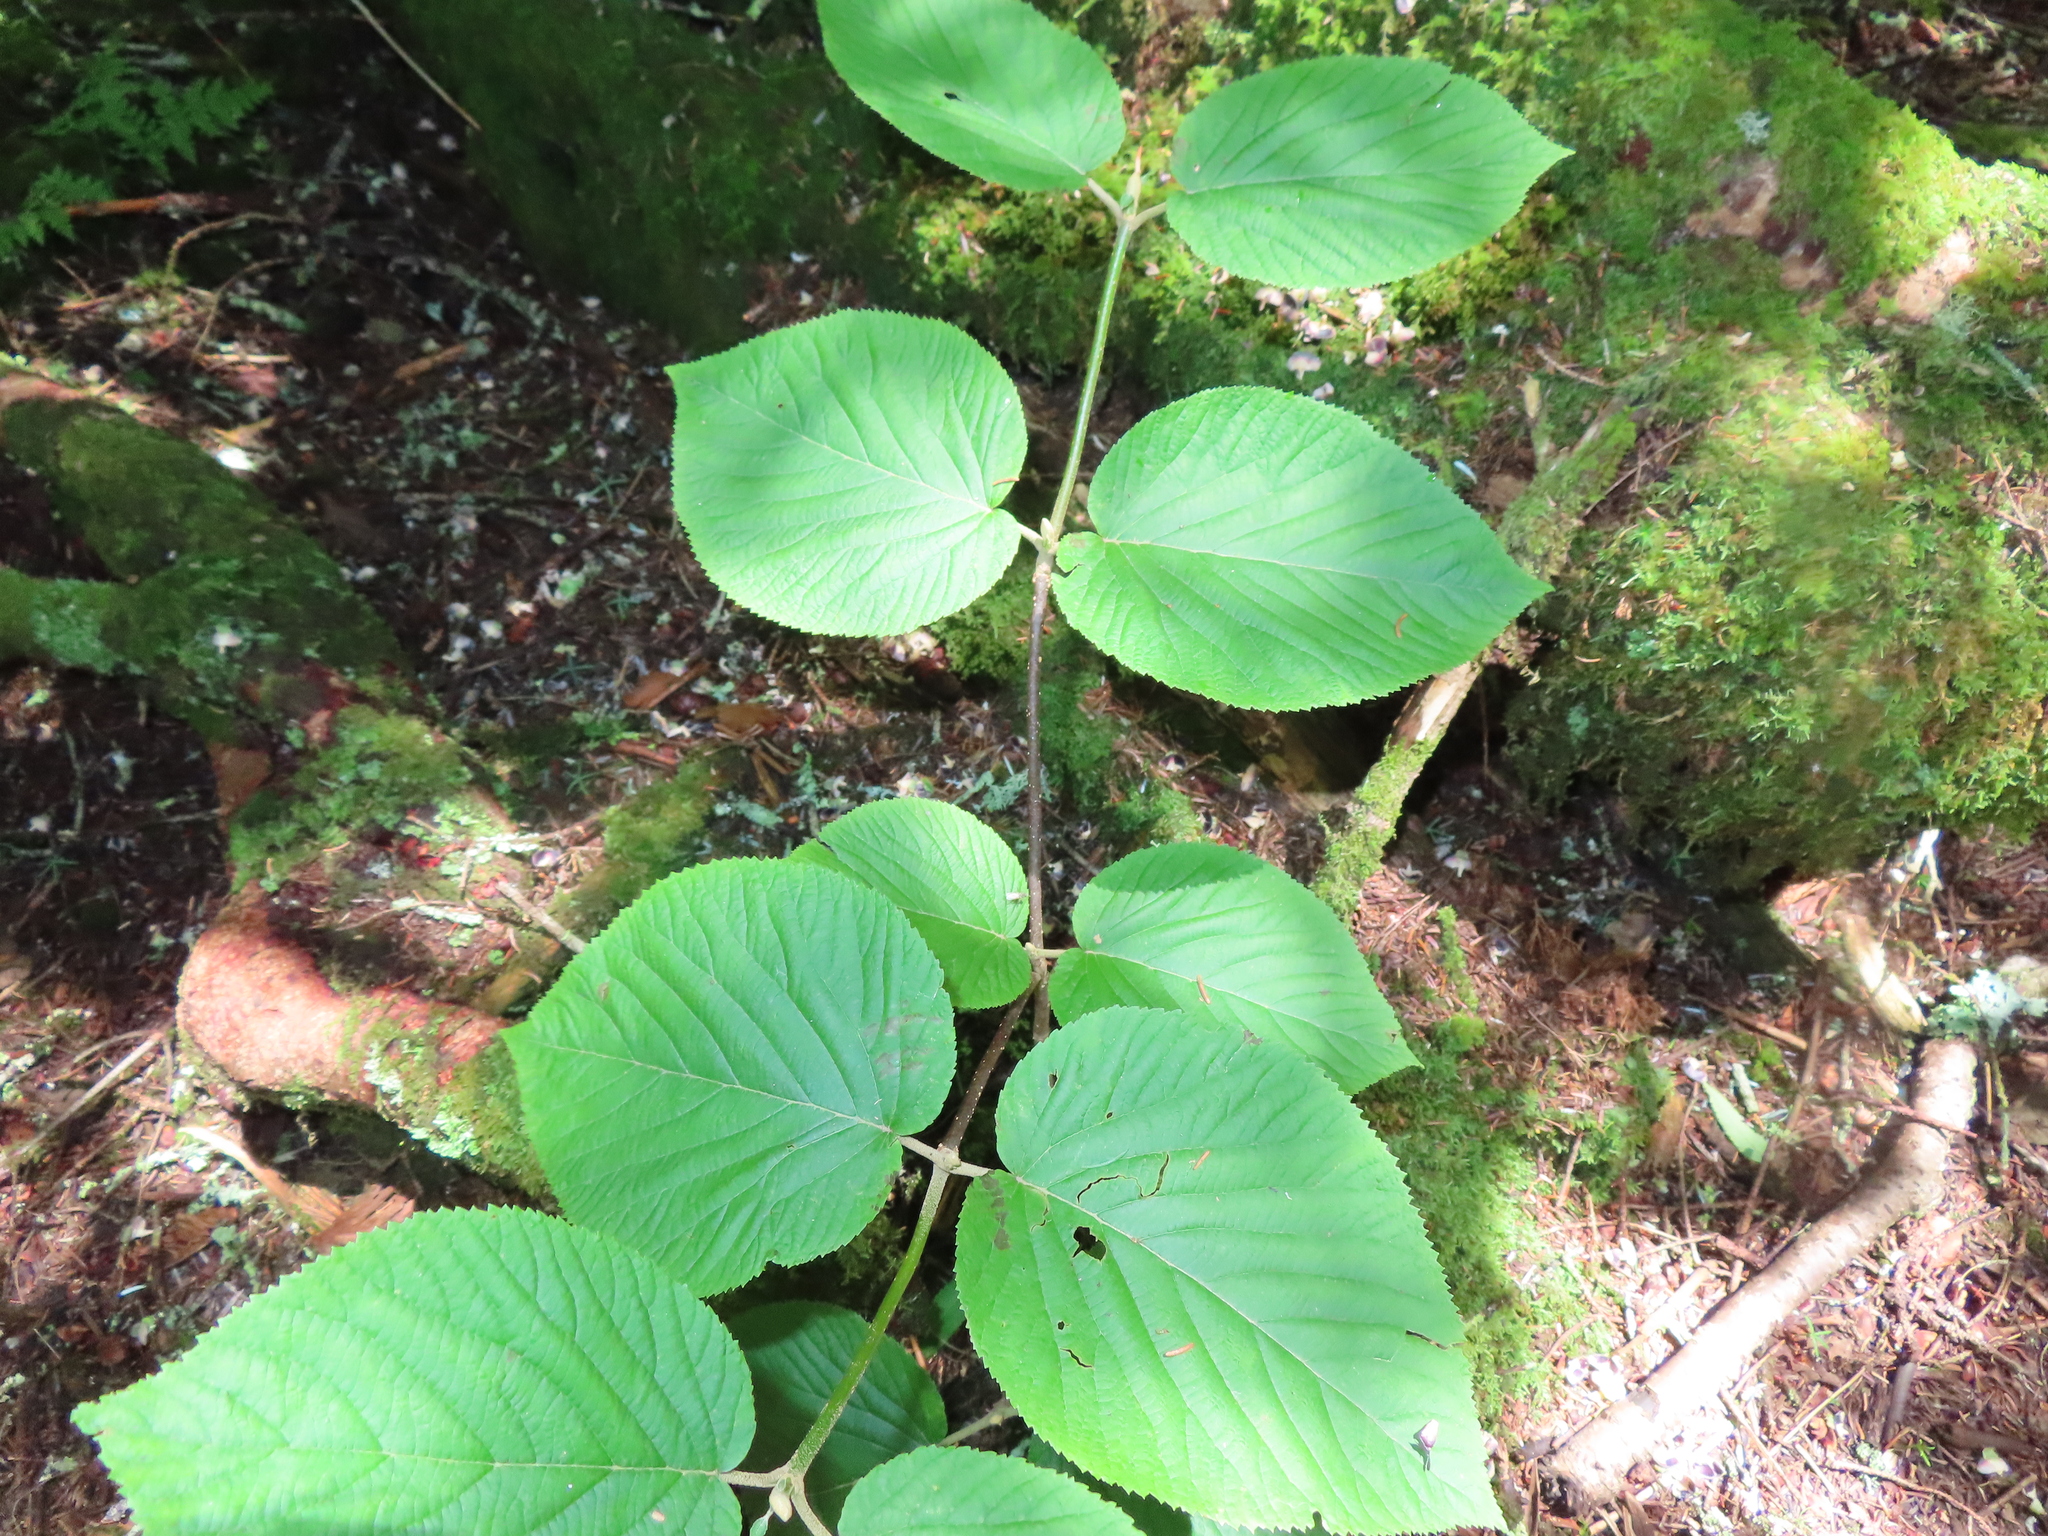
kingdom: Plantae
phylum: Tracheophyta
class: Magnoliopsida
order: Dipsacales
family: Viburnaceae
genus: Viburnum
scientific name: Viburnum lantanoides
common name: Hobblebush
